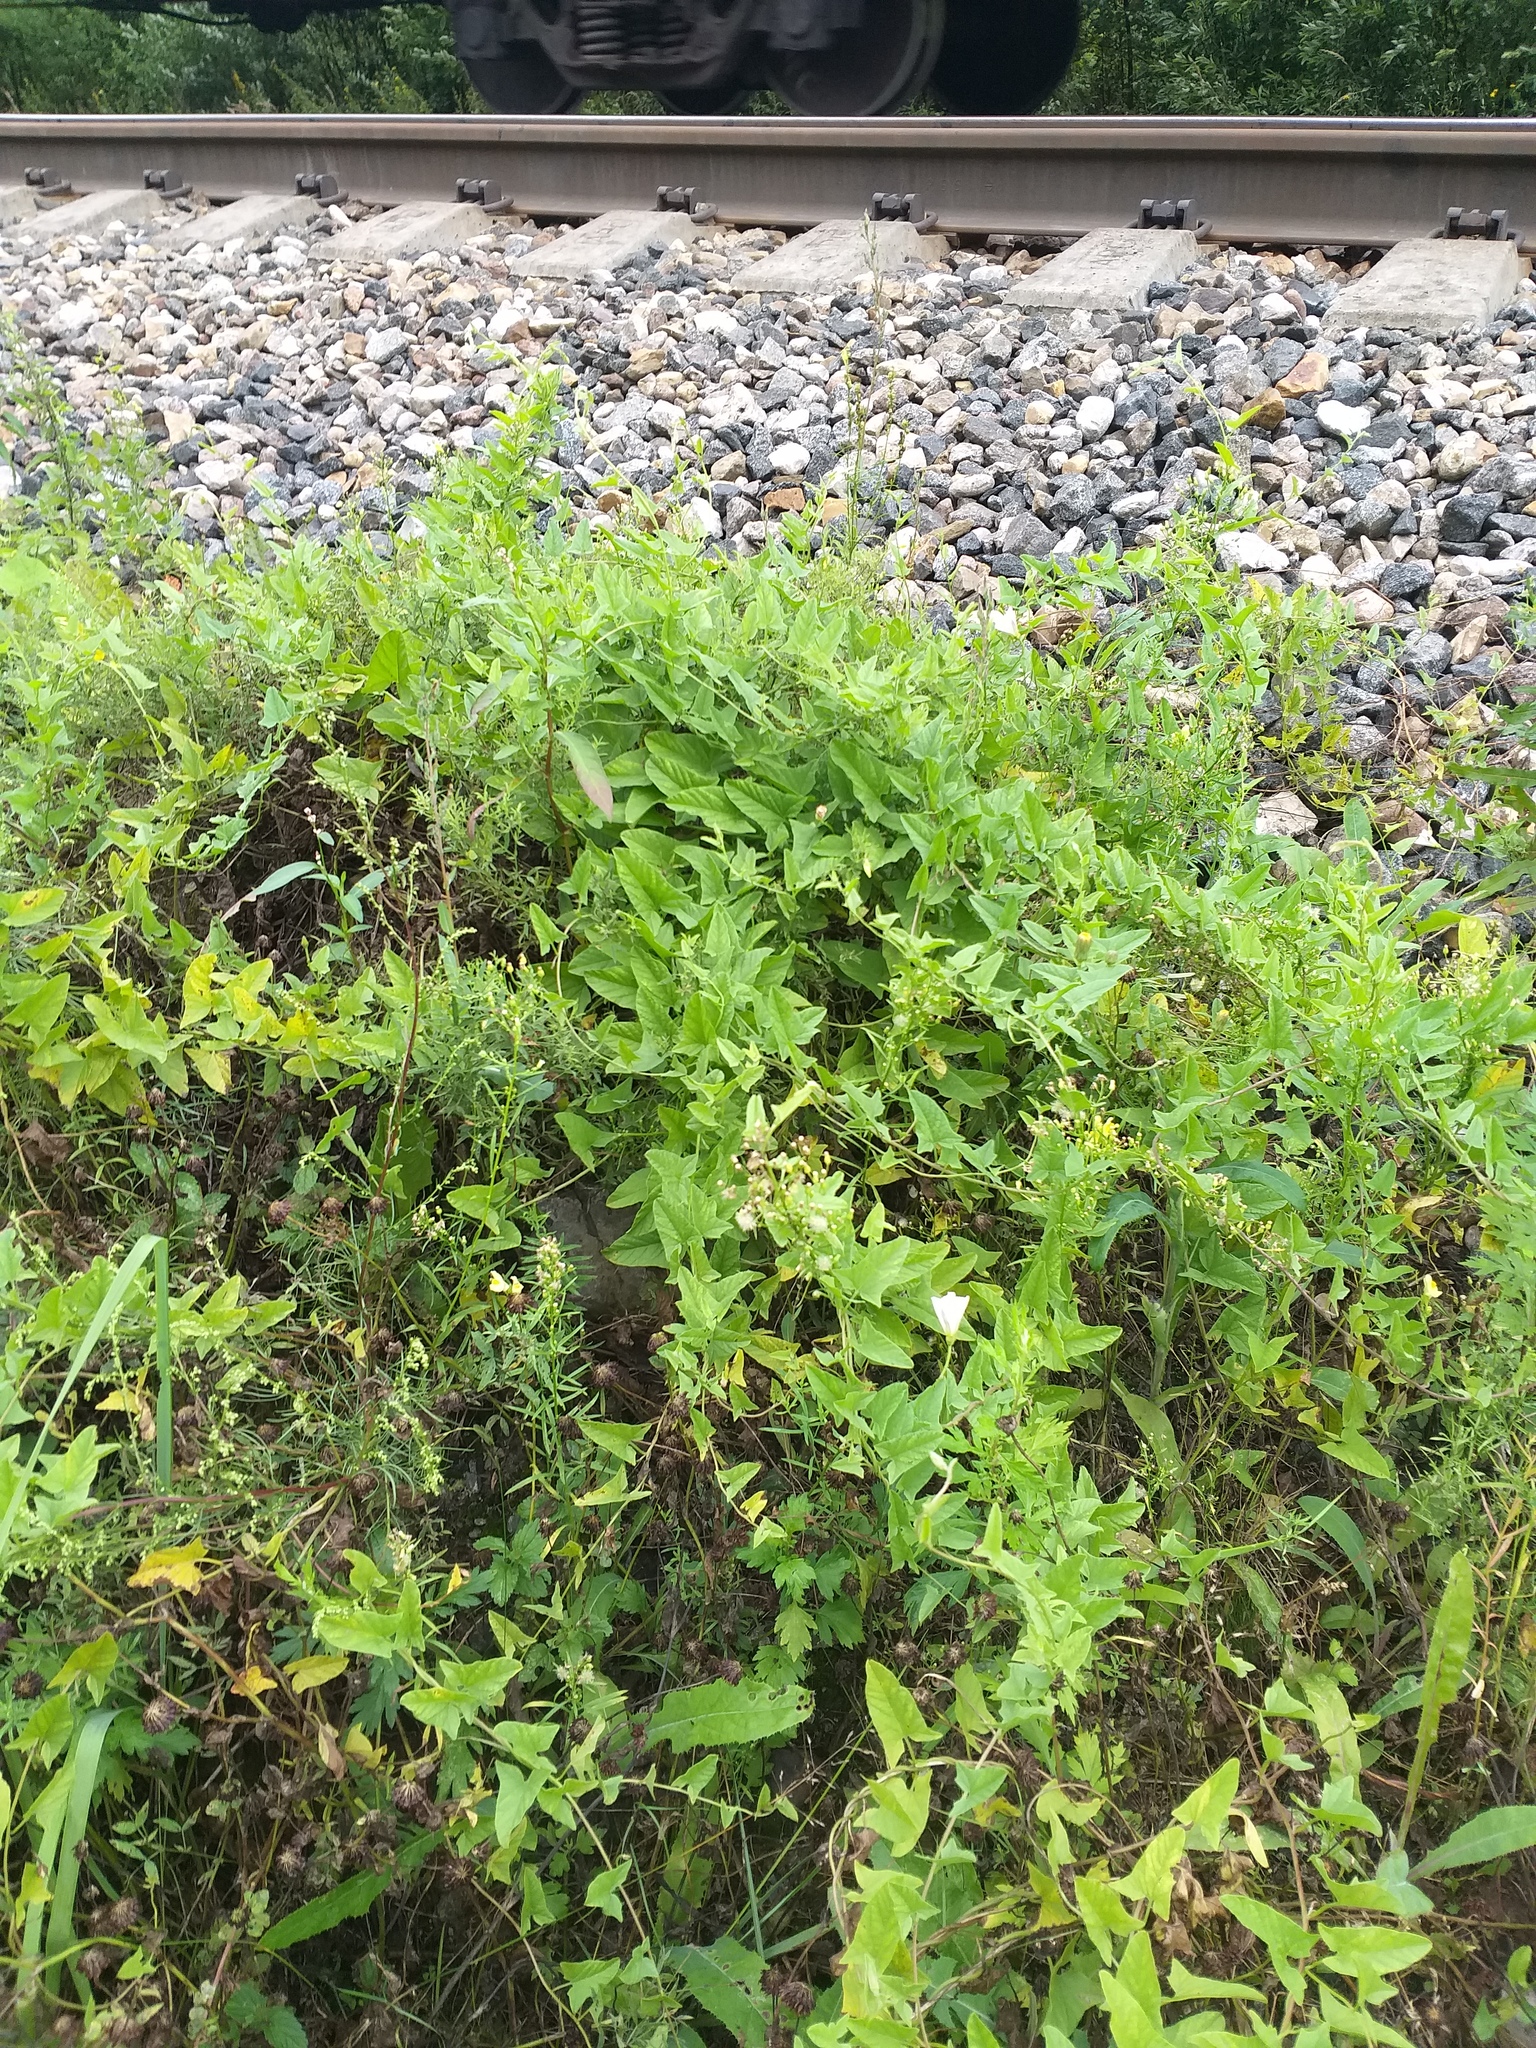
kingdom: Plantae
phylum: Tracheophyta
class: Magnoliopsida
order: Solanales
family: Convolvulaceae
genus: Convolvulus
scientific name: Convolvulus arvensis
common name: Field bindweed
